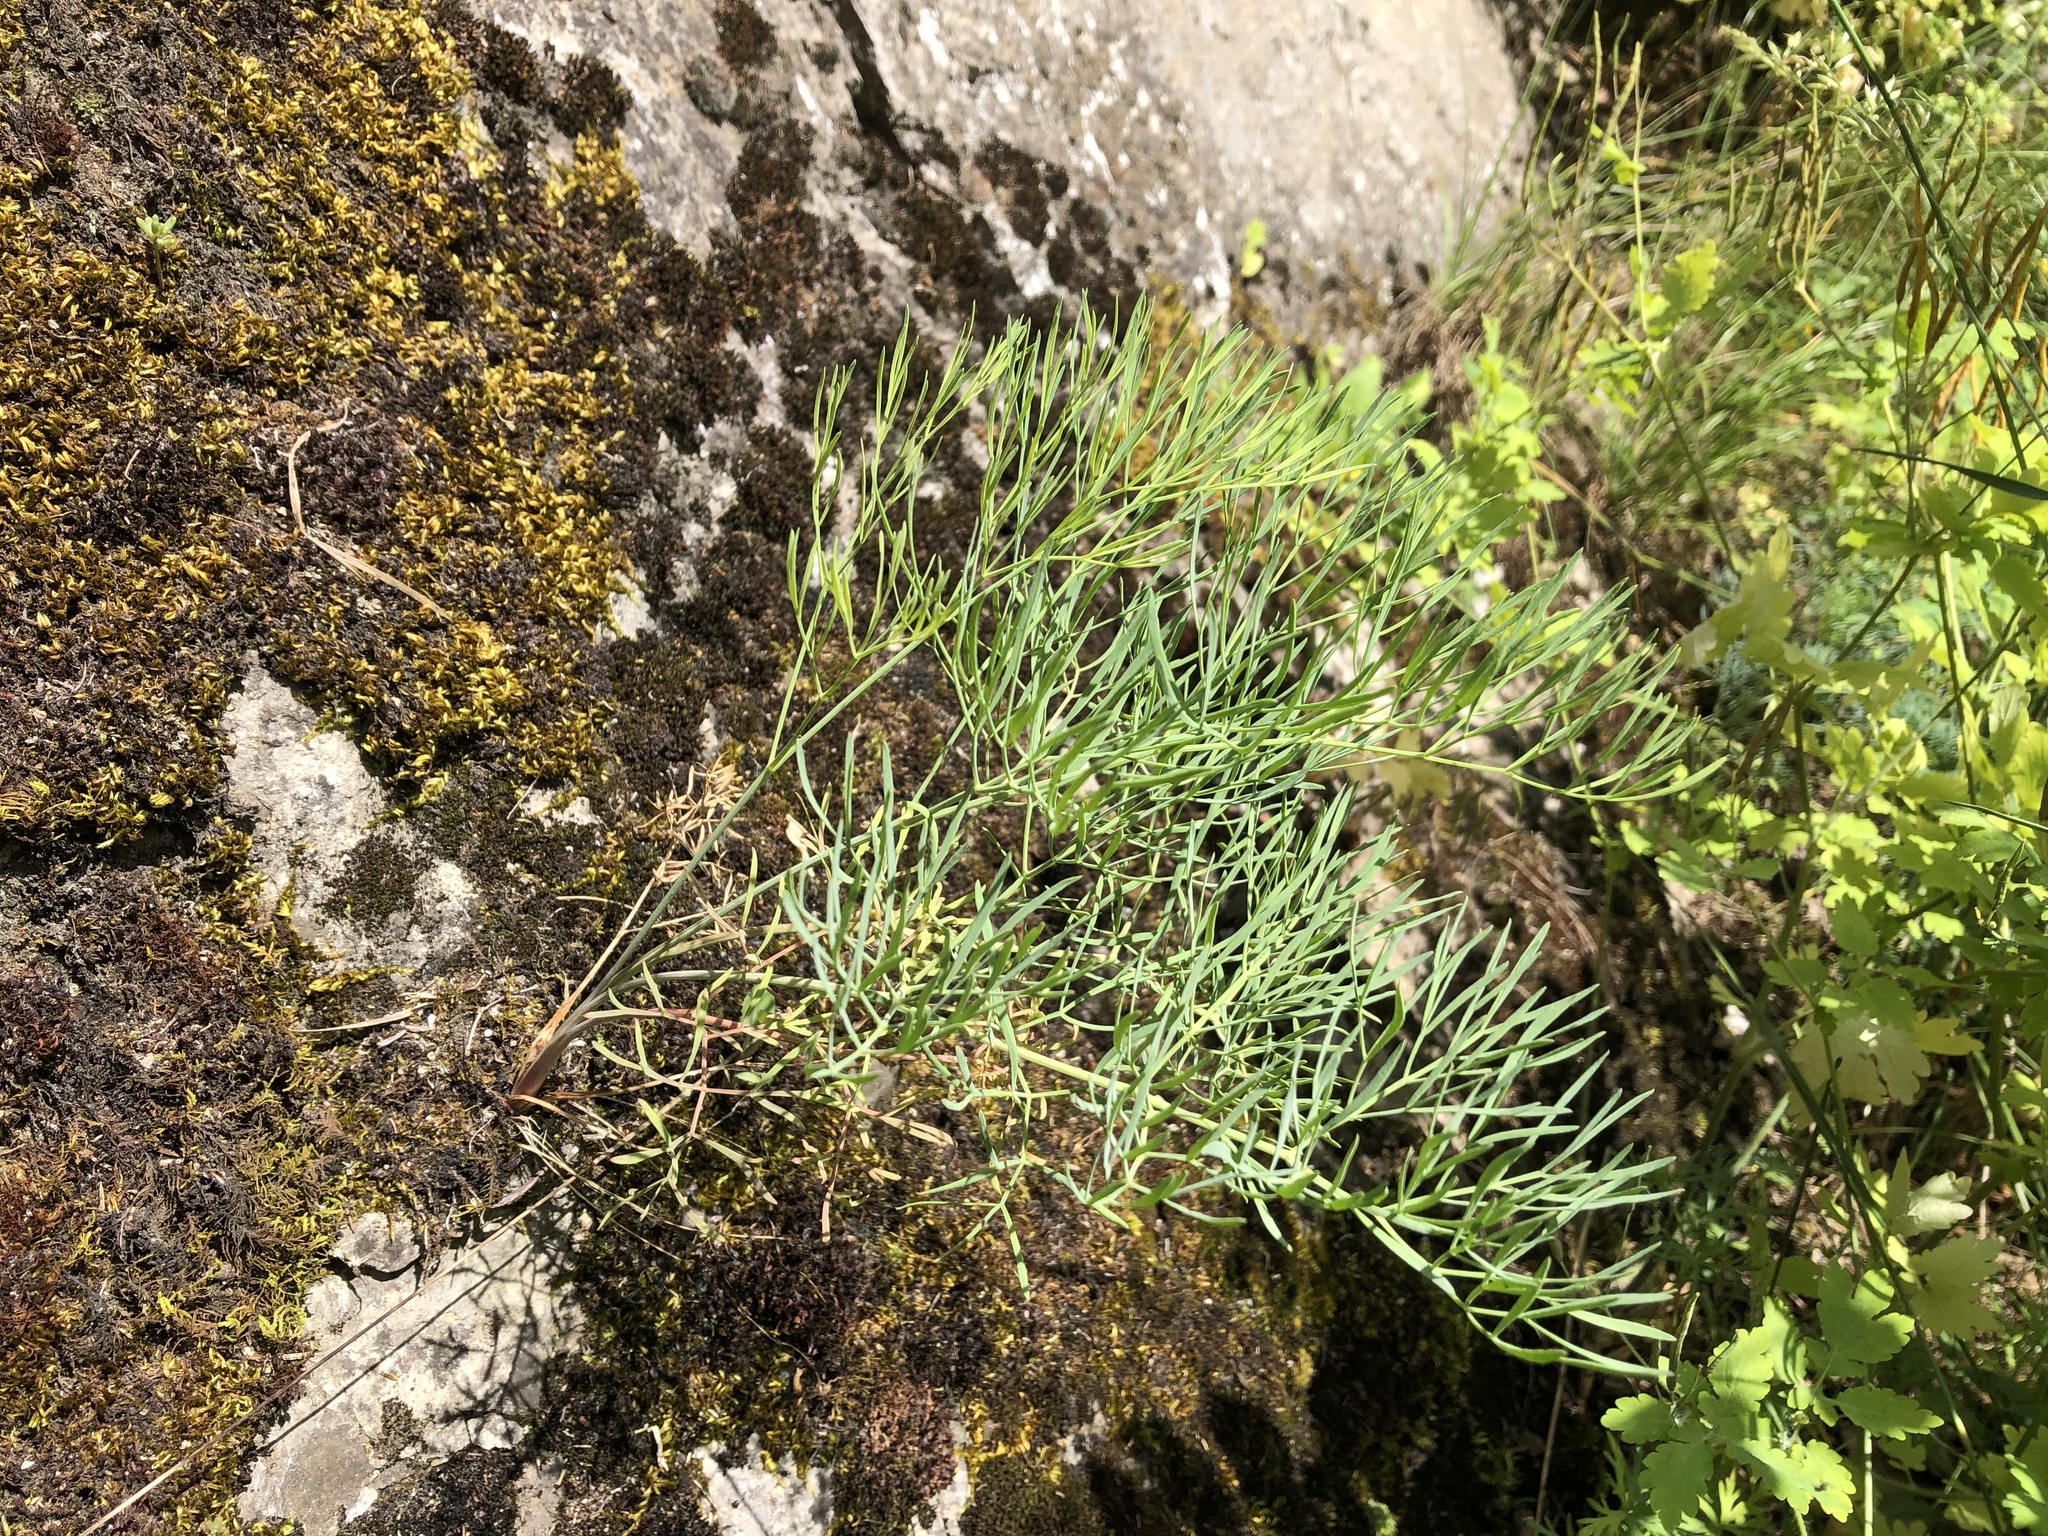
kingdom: Plantae
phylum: Tracheophyta
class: Magnoliopsida
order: Apiales
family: Apiaceae
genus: Seseli
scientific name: Seseli osseum
